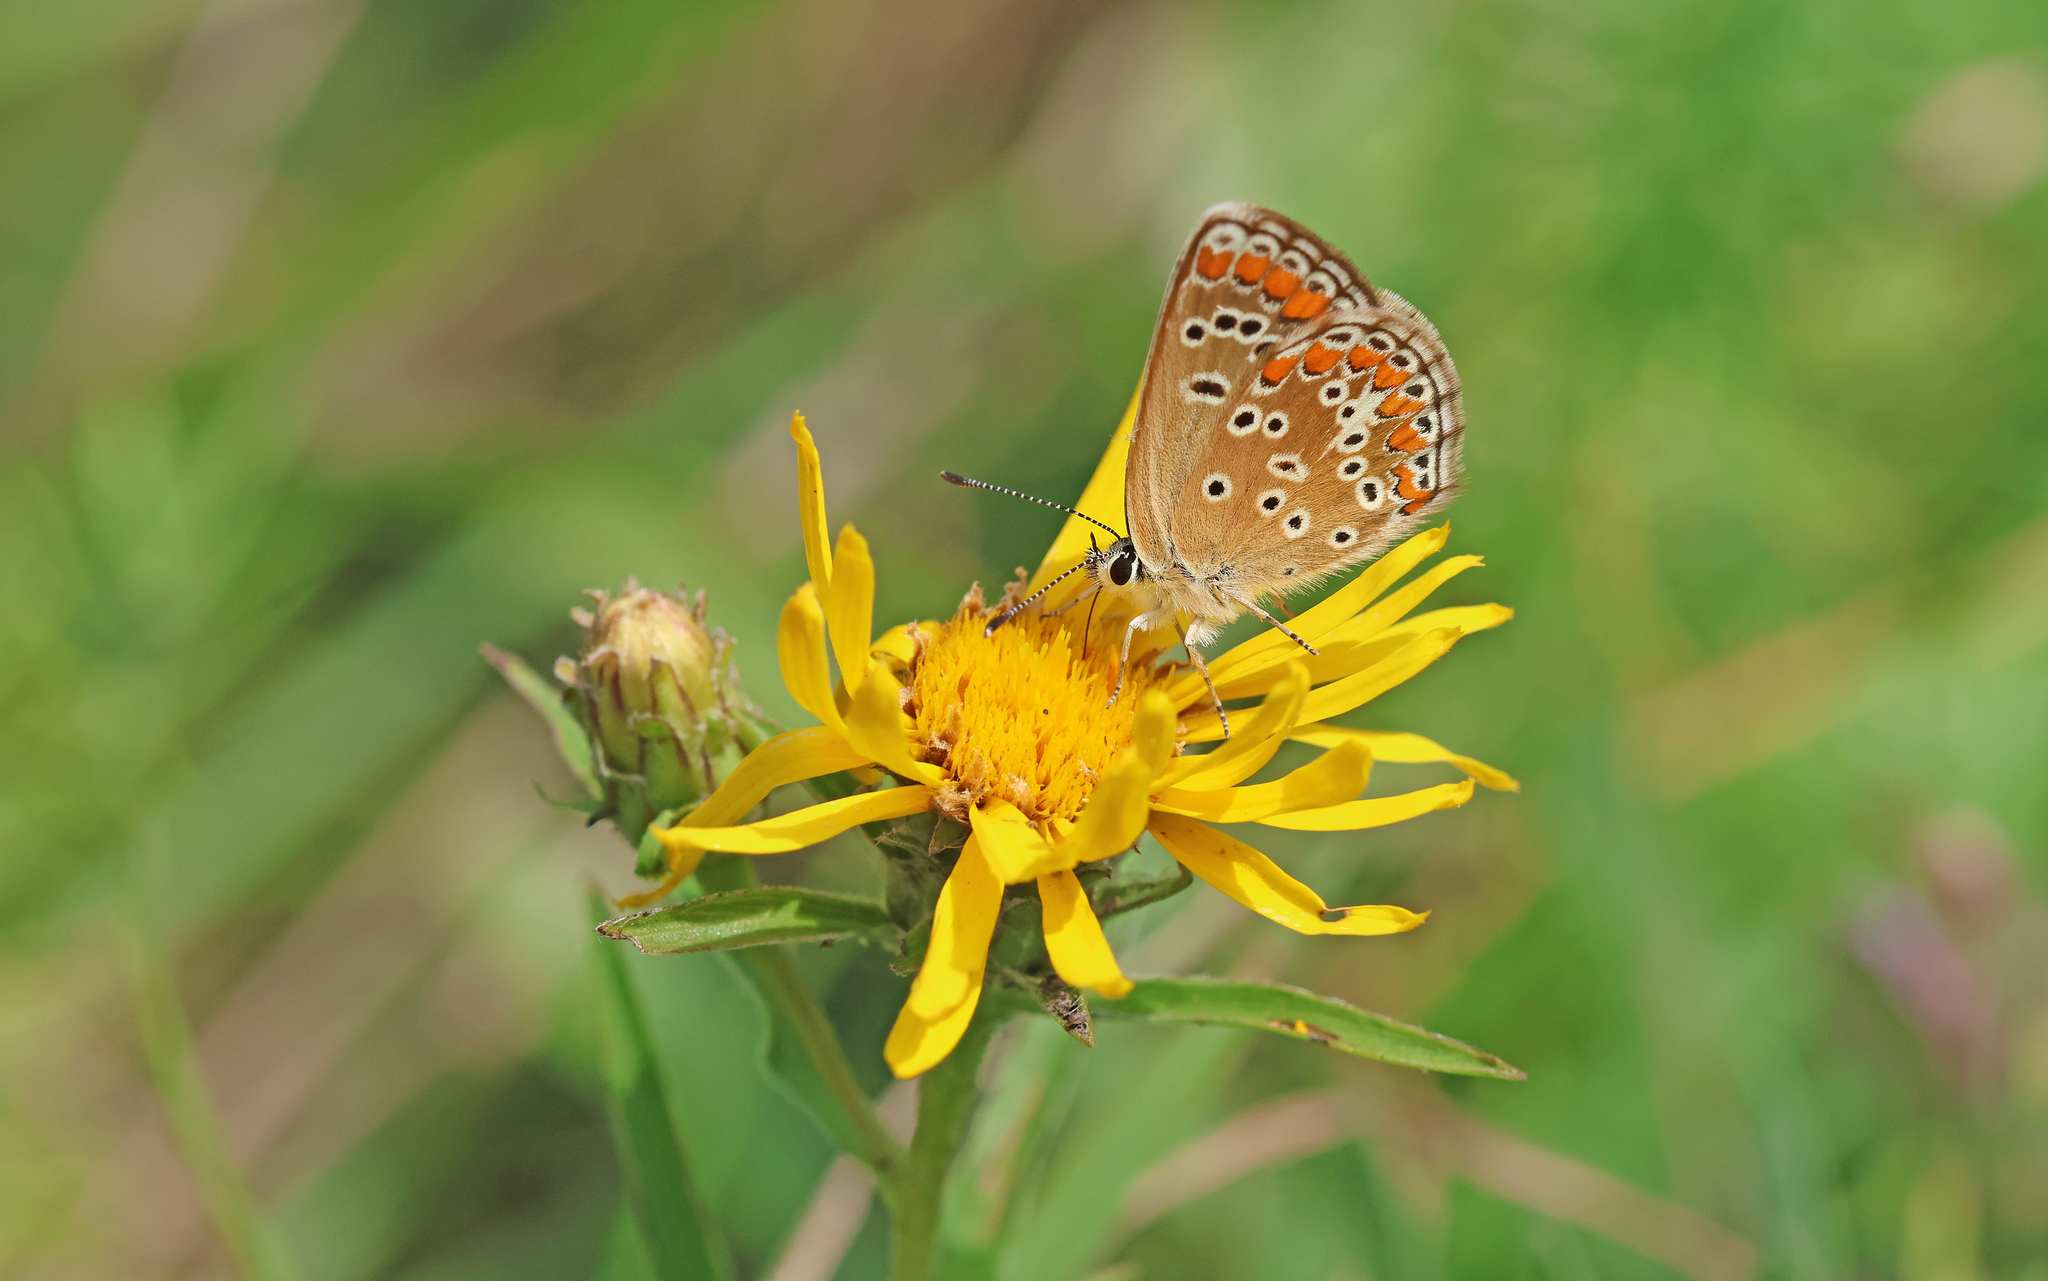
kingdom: Animalia
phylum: Arthropoda
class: Insecta
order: Lepidoptera
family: Lycaenidae
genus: Aricia
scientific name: Aricia agestis
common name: Brown argus
